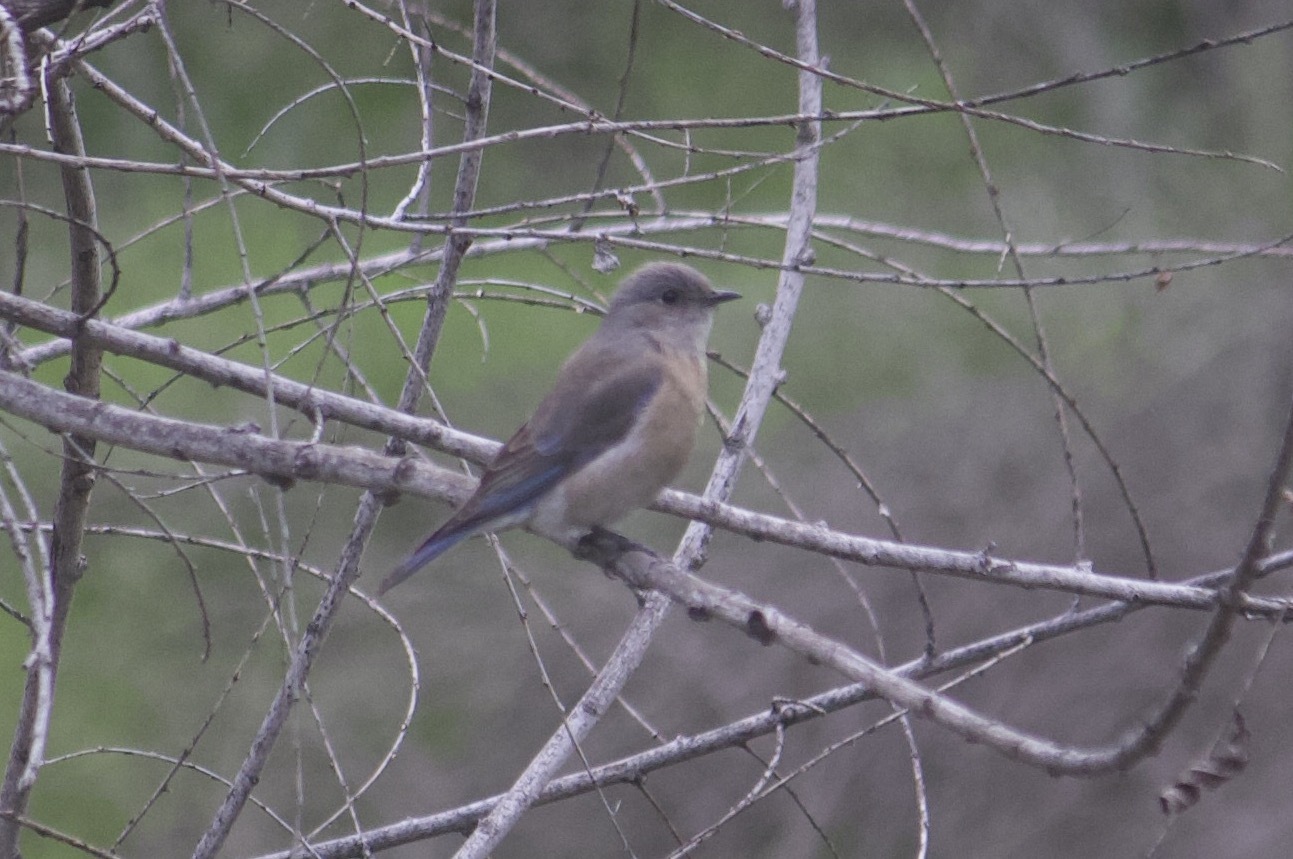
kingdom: Animalia
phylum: Chordata
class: Aves
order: Passeriformes
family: Turdidae
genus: Sialia
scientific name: Sialia mexicana
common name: Western bluebird
